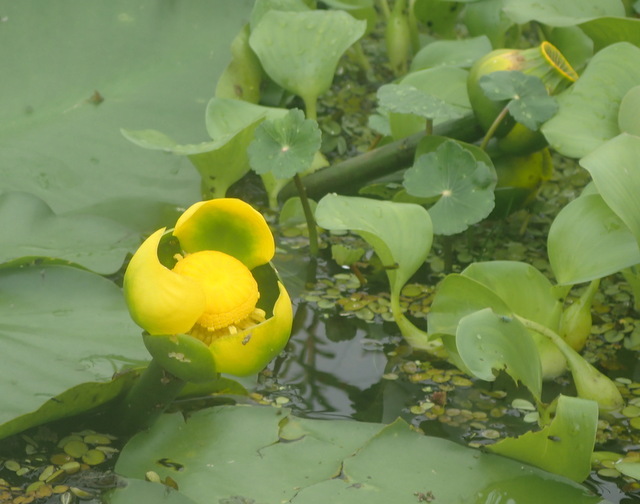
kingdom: Plantae
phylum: Tracheophyta
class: Magnoliopsida
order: Nymphaeales
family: Nymphaeaceae
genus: Nuphar
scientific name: Nuphar advena
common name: Spatter-dock
